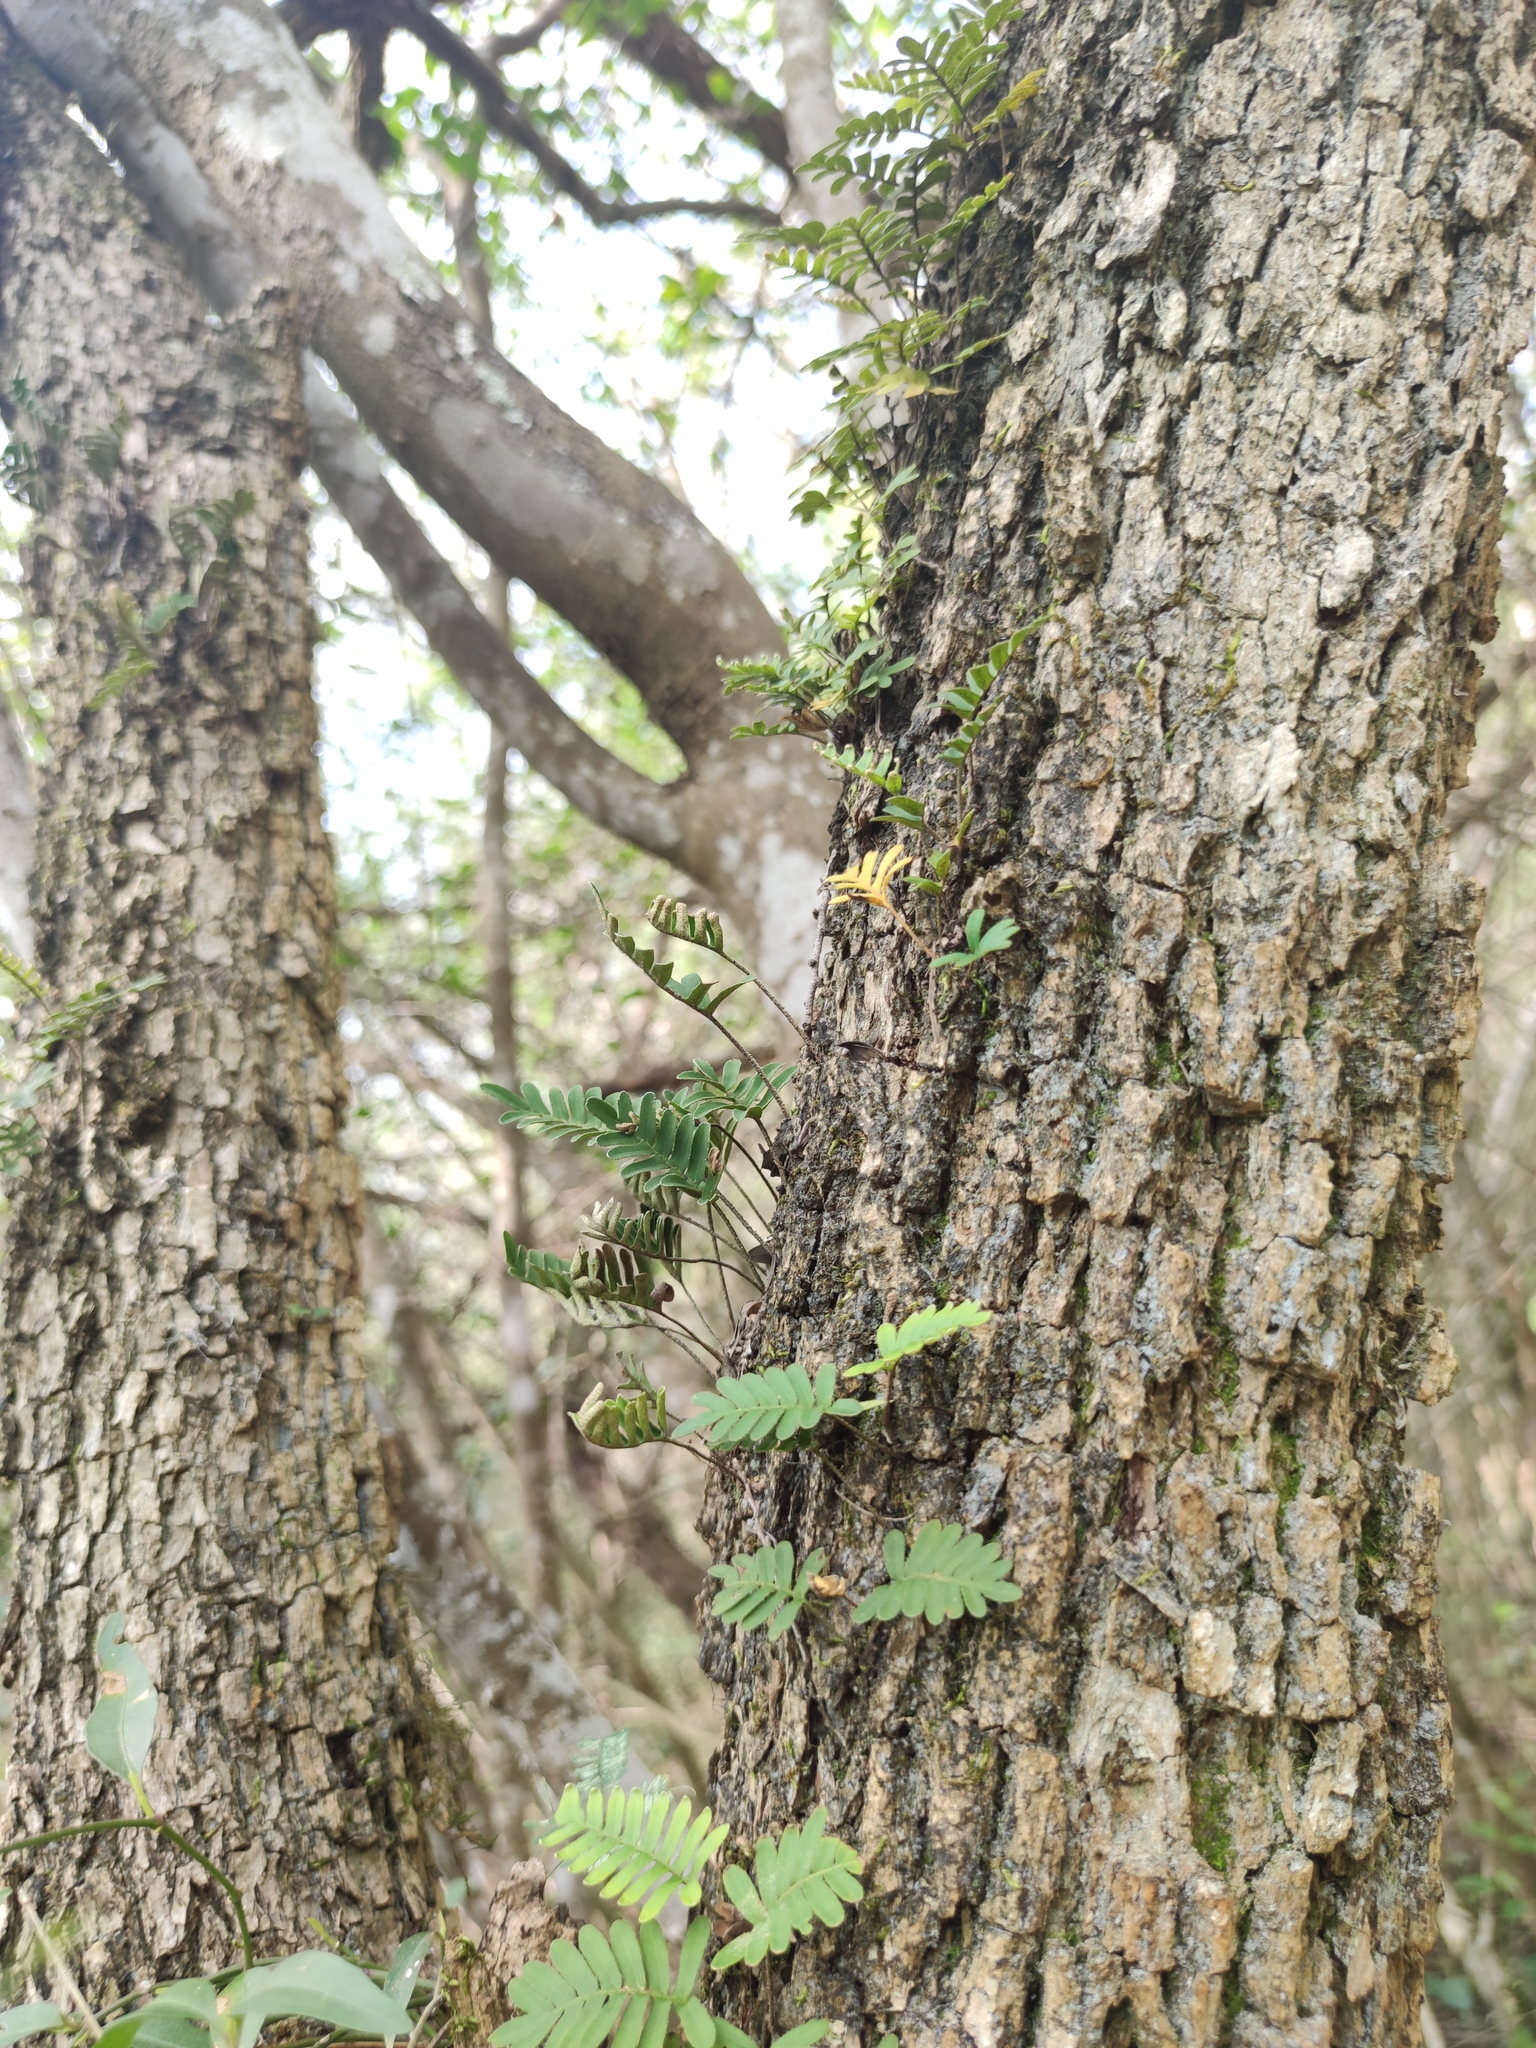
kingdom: Plantae
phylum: Tracheophyta
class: Polypodiopsida
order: Polypodiales
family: Polypodiaceae
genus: Pleopeltis
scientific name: Pleopeltis michauxiana
